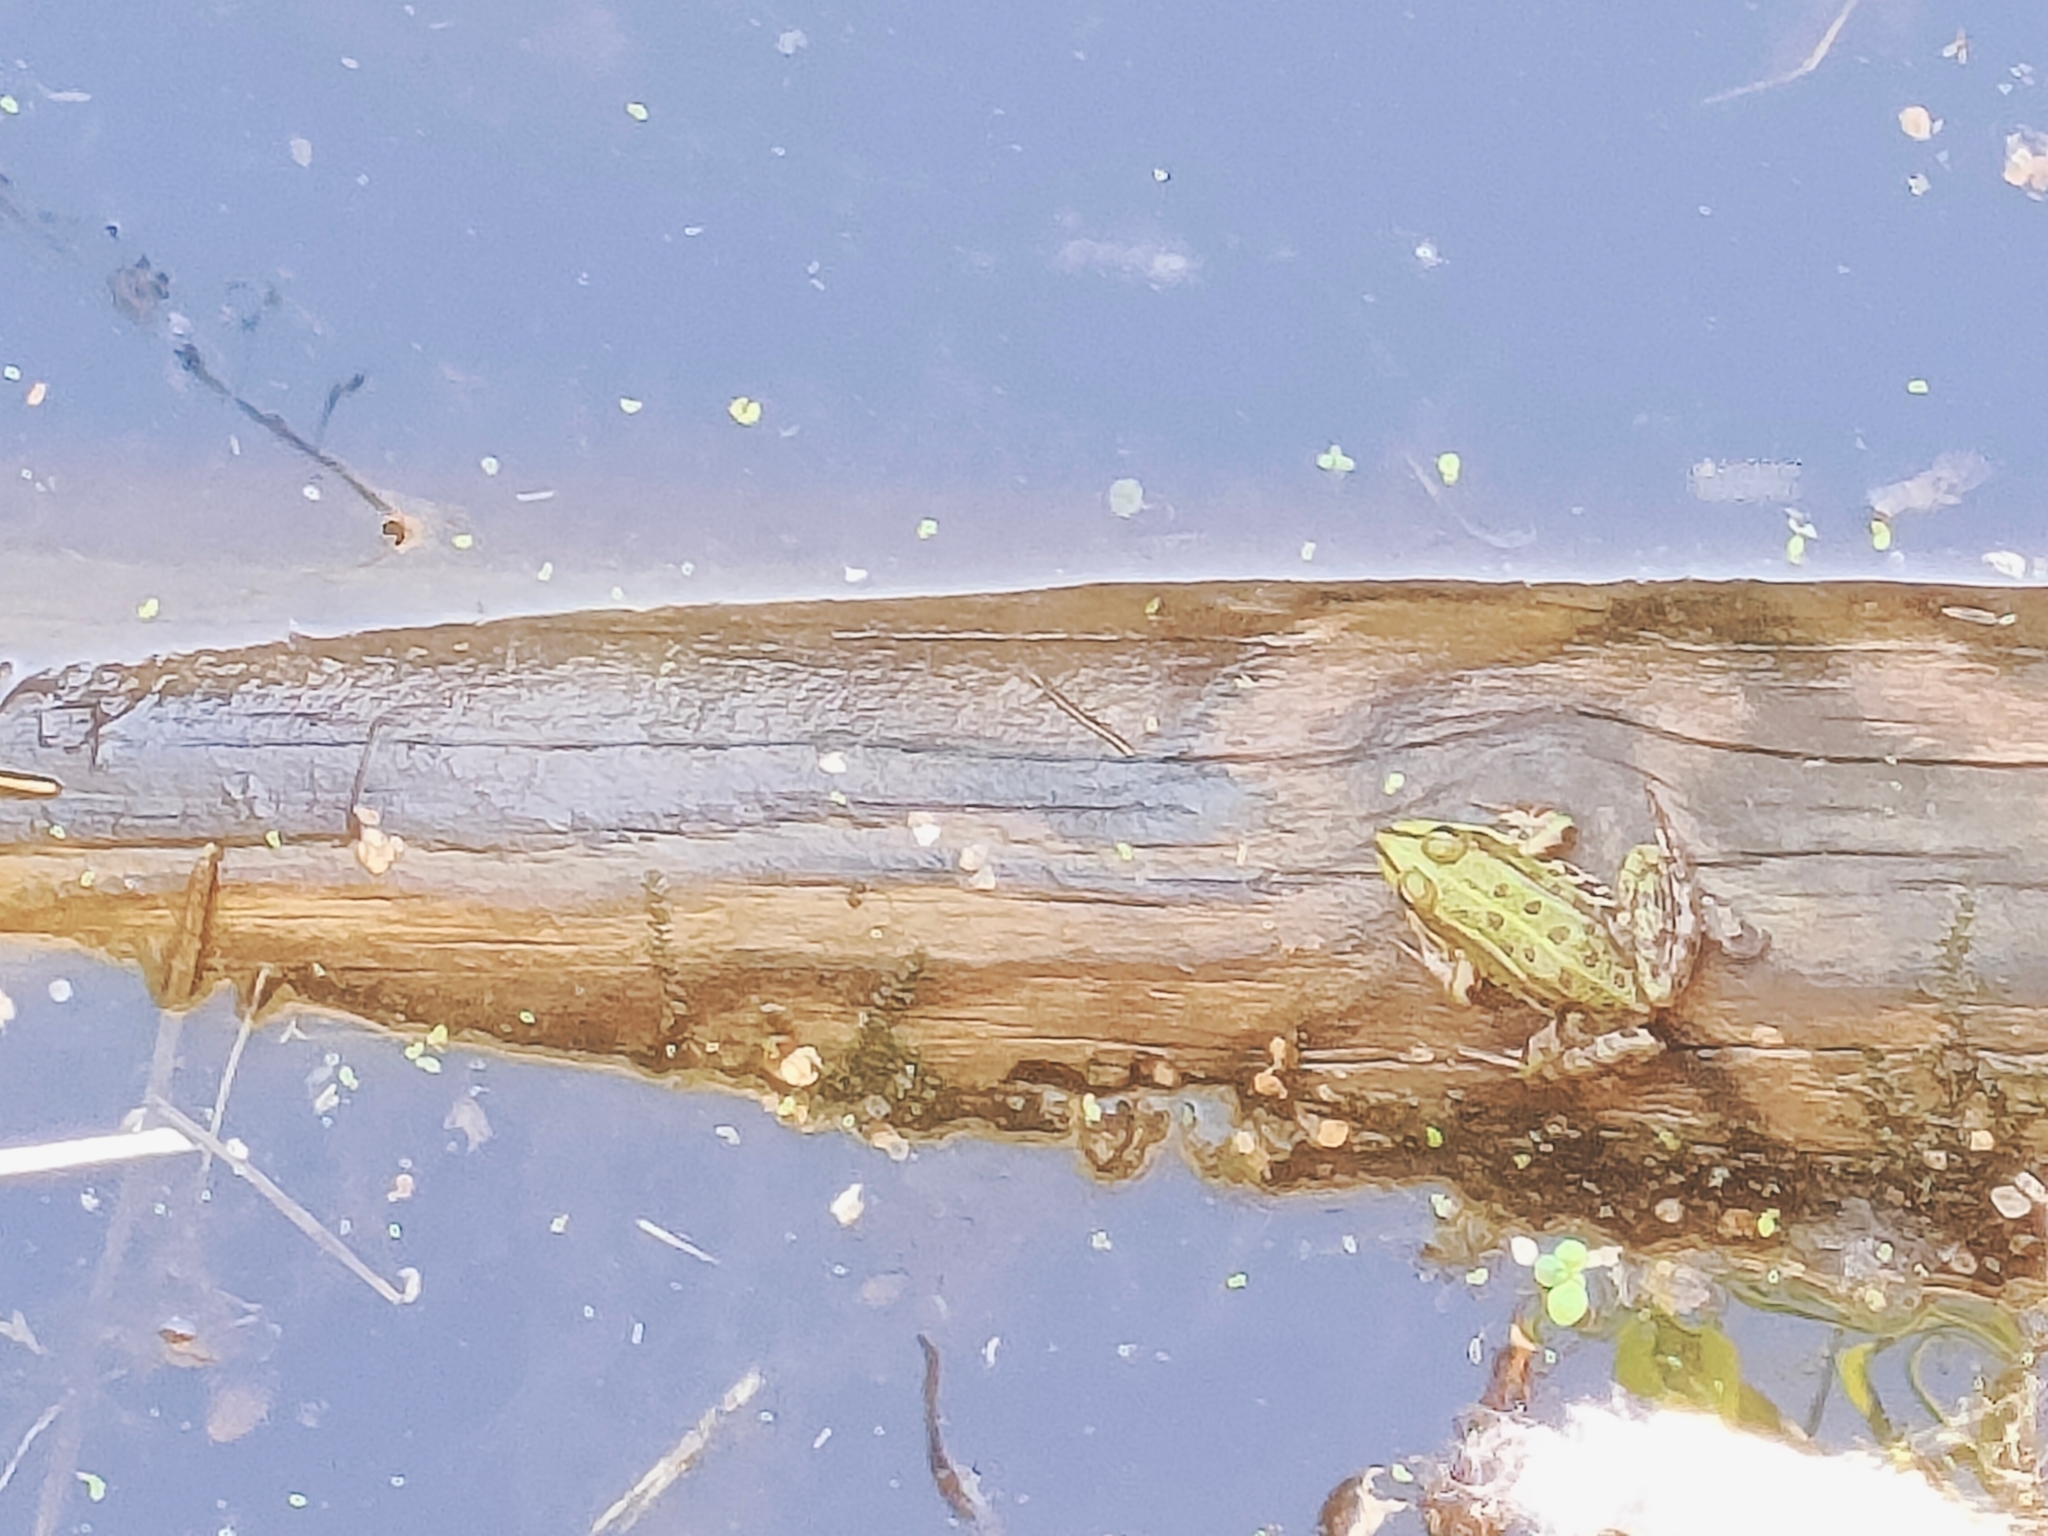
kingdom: Animalia
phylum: Chordata
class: Amphibia
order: Anura
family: Ranidae
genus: Pelophylax
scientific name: Pelophylax
